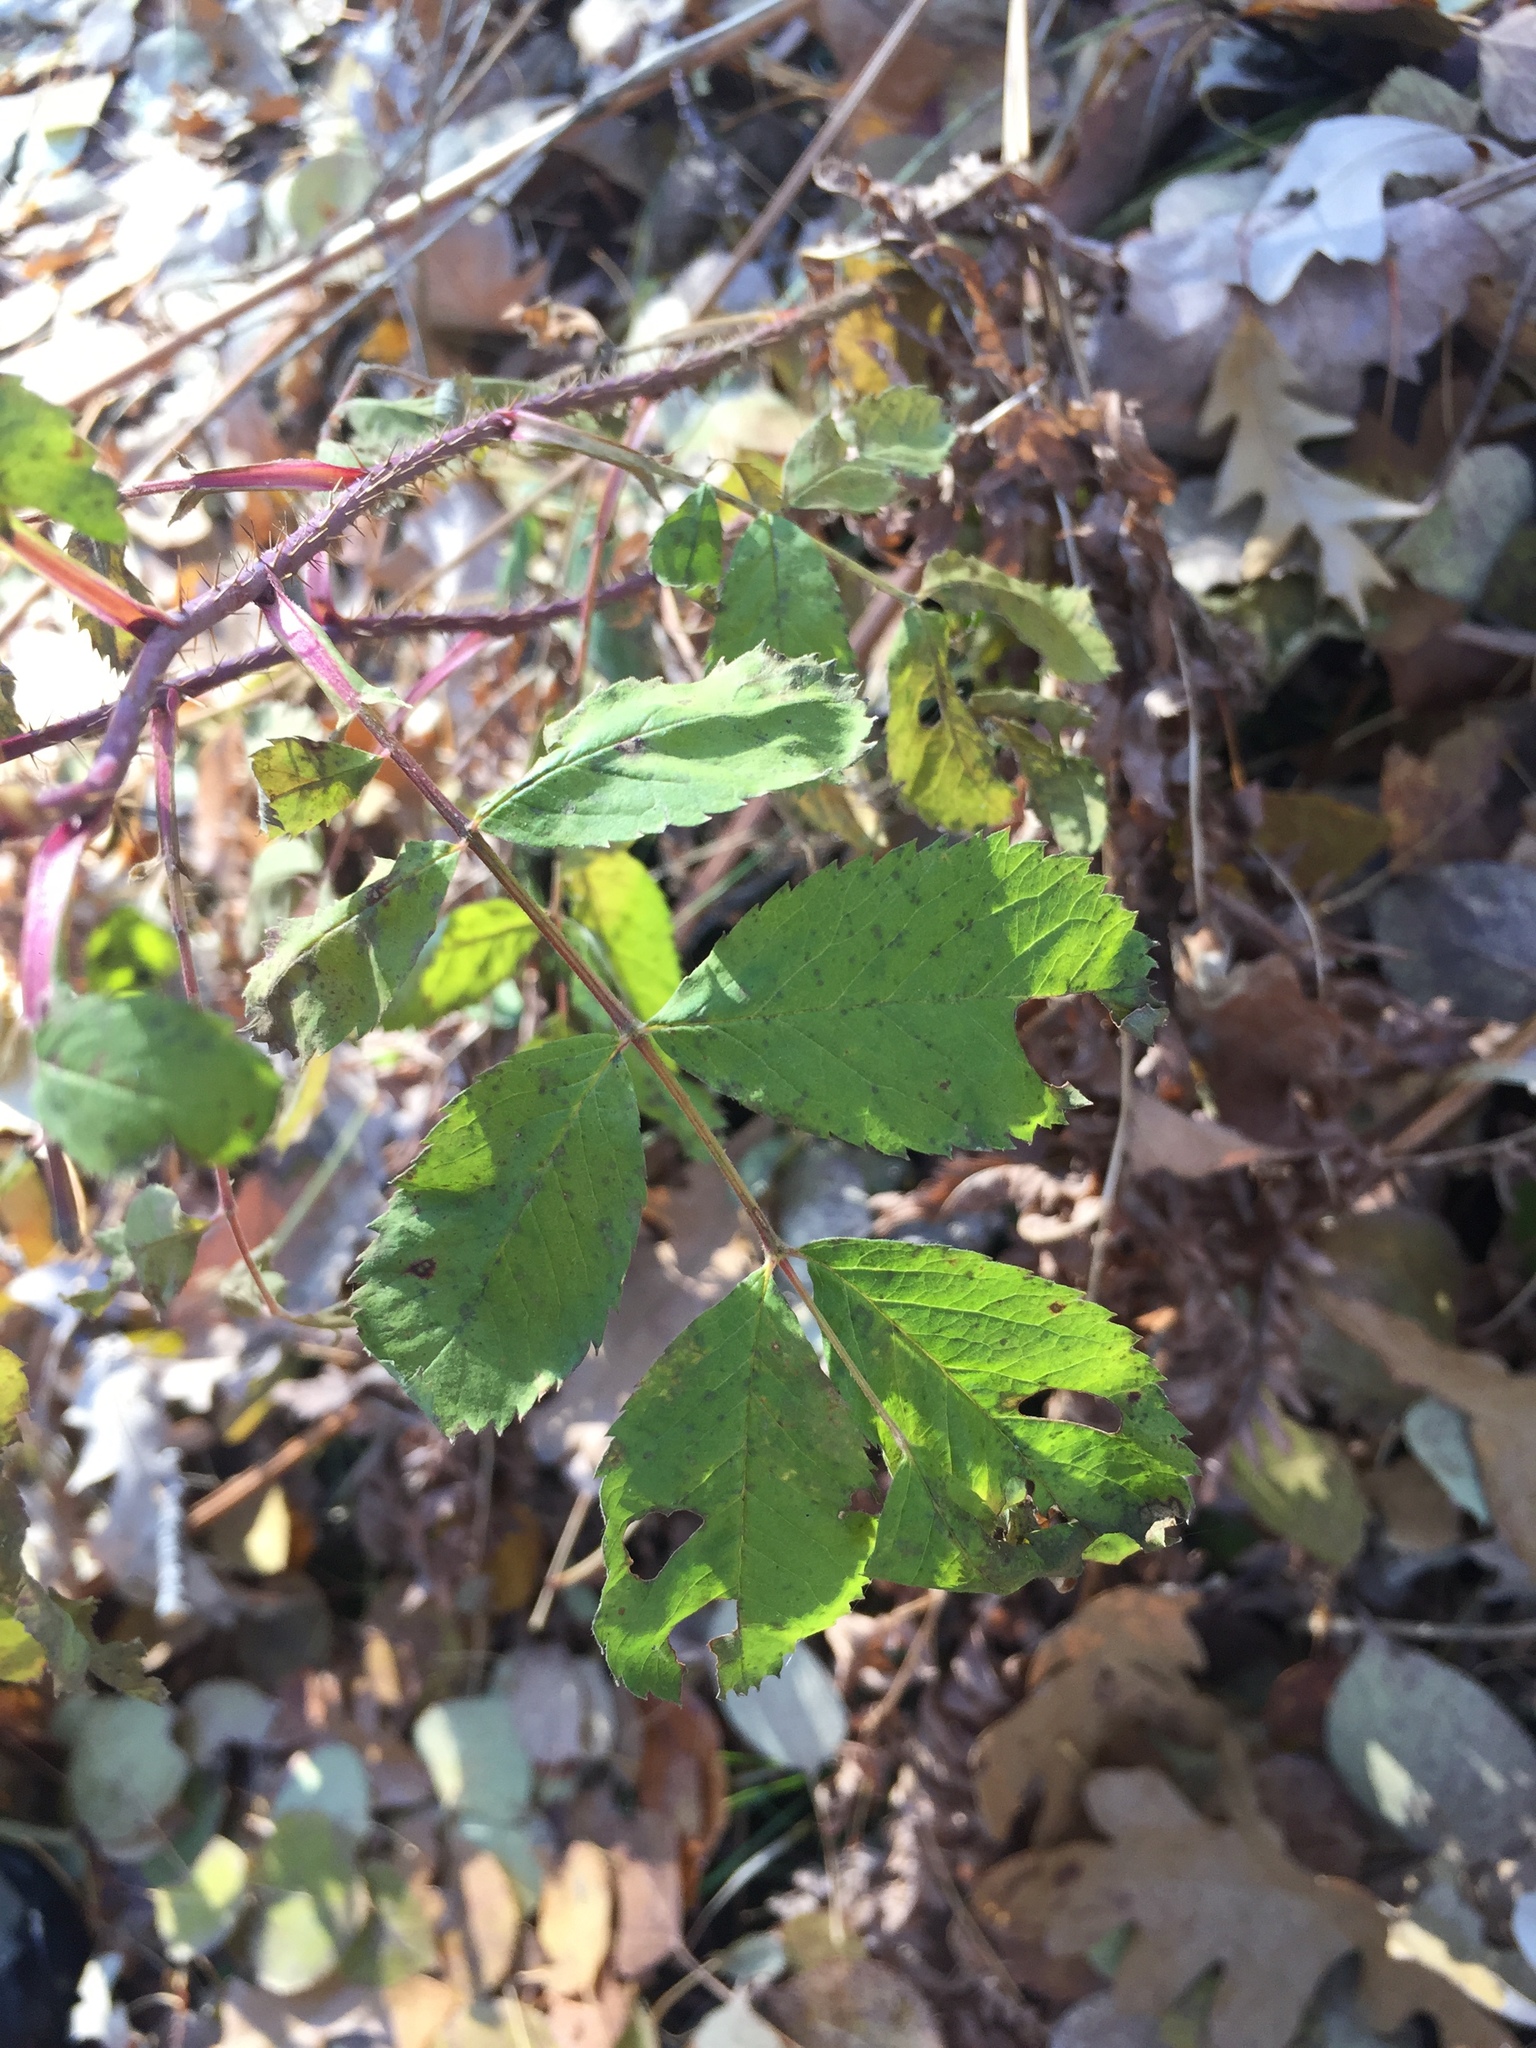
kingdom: Plantae
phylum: Tracheophyta
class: Magnoliopsida
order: Rosales
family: Rosaceae
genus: Rosa
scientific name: Rosa acicularis
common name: Prickly rose
